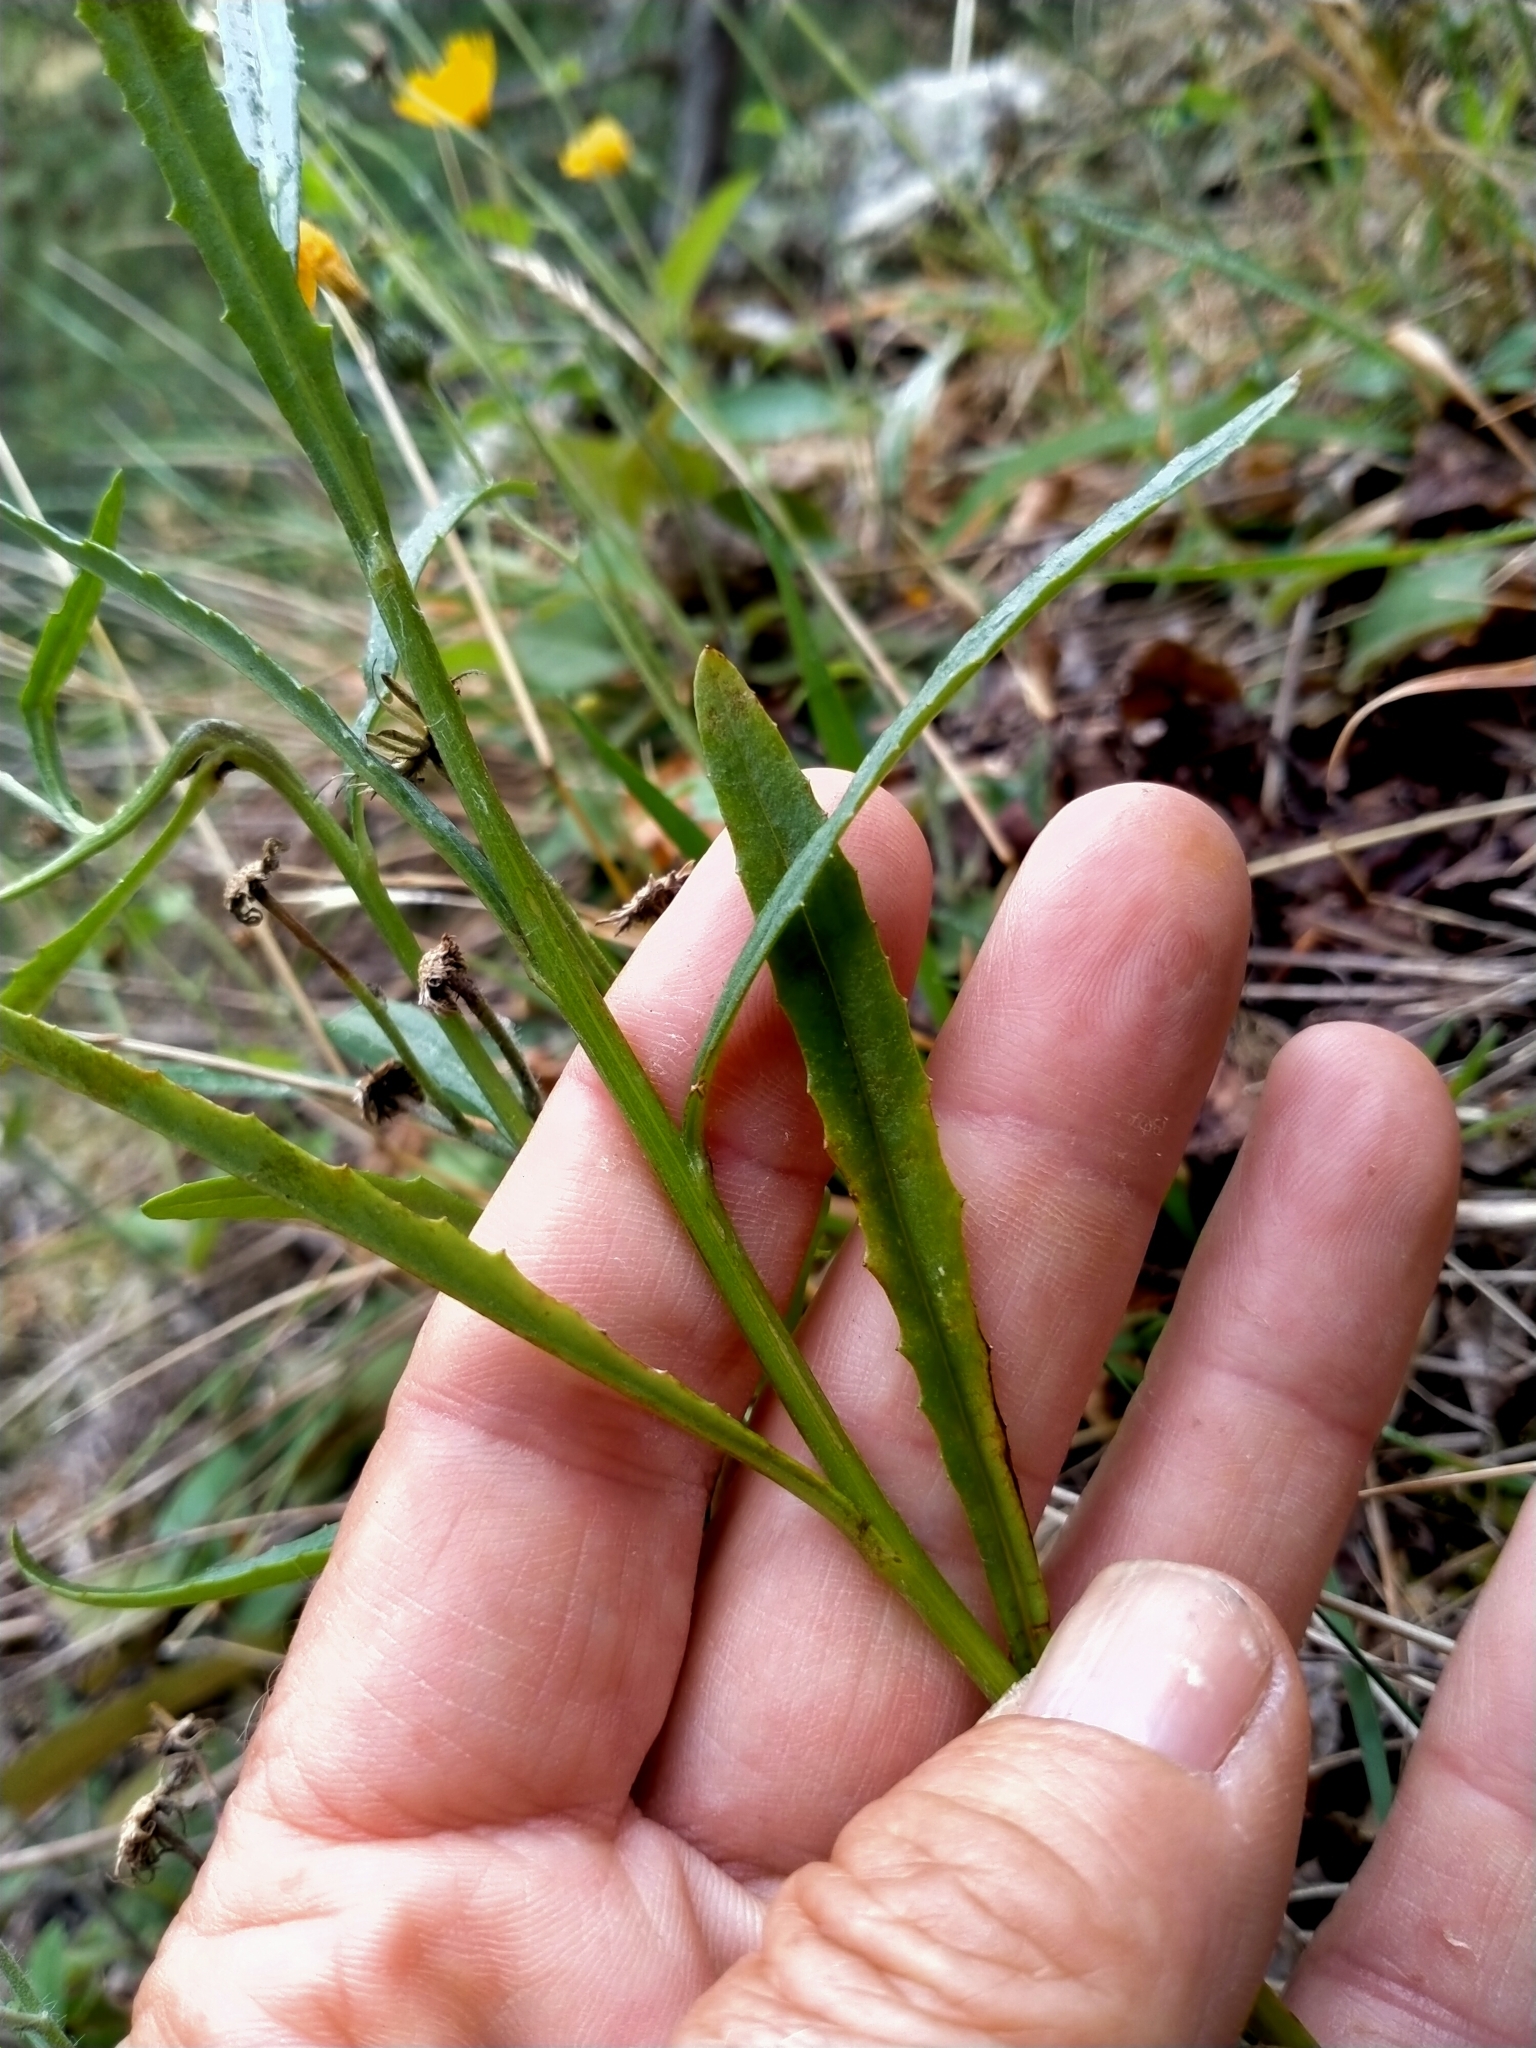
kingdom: Plantae
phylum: Tracheophyta
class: Magnoliopsida
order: Asterales
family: Asteraceae
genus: Senecio
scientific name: Senecio dunedinensis
